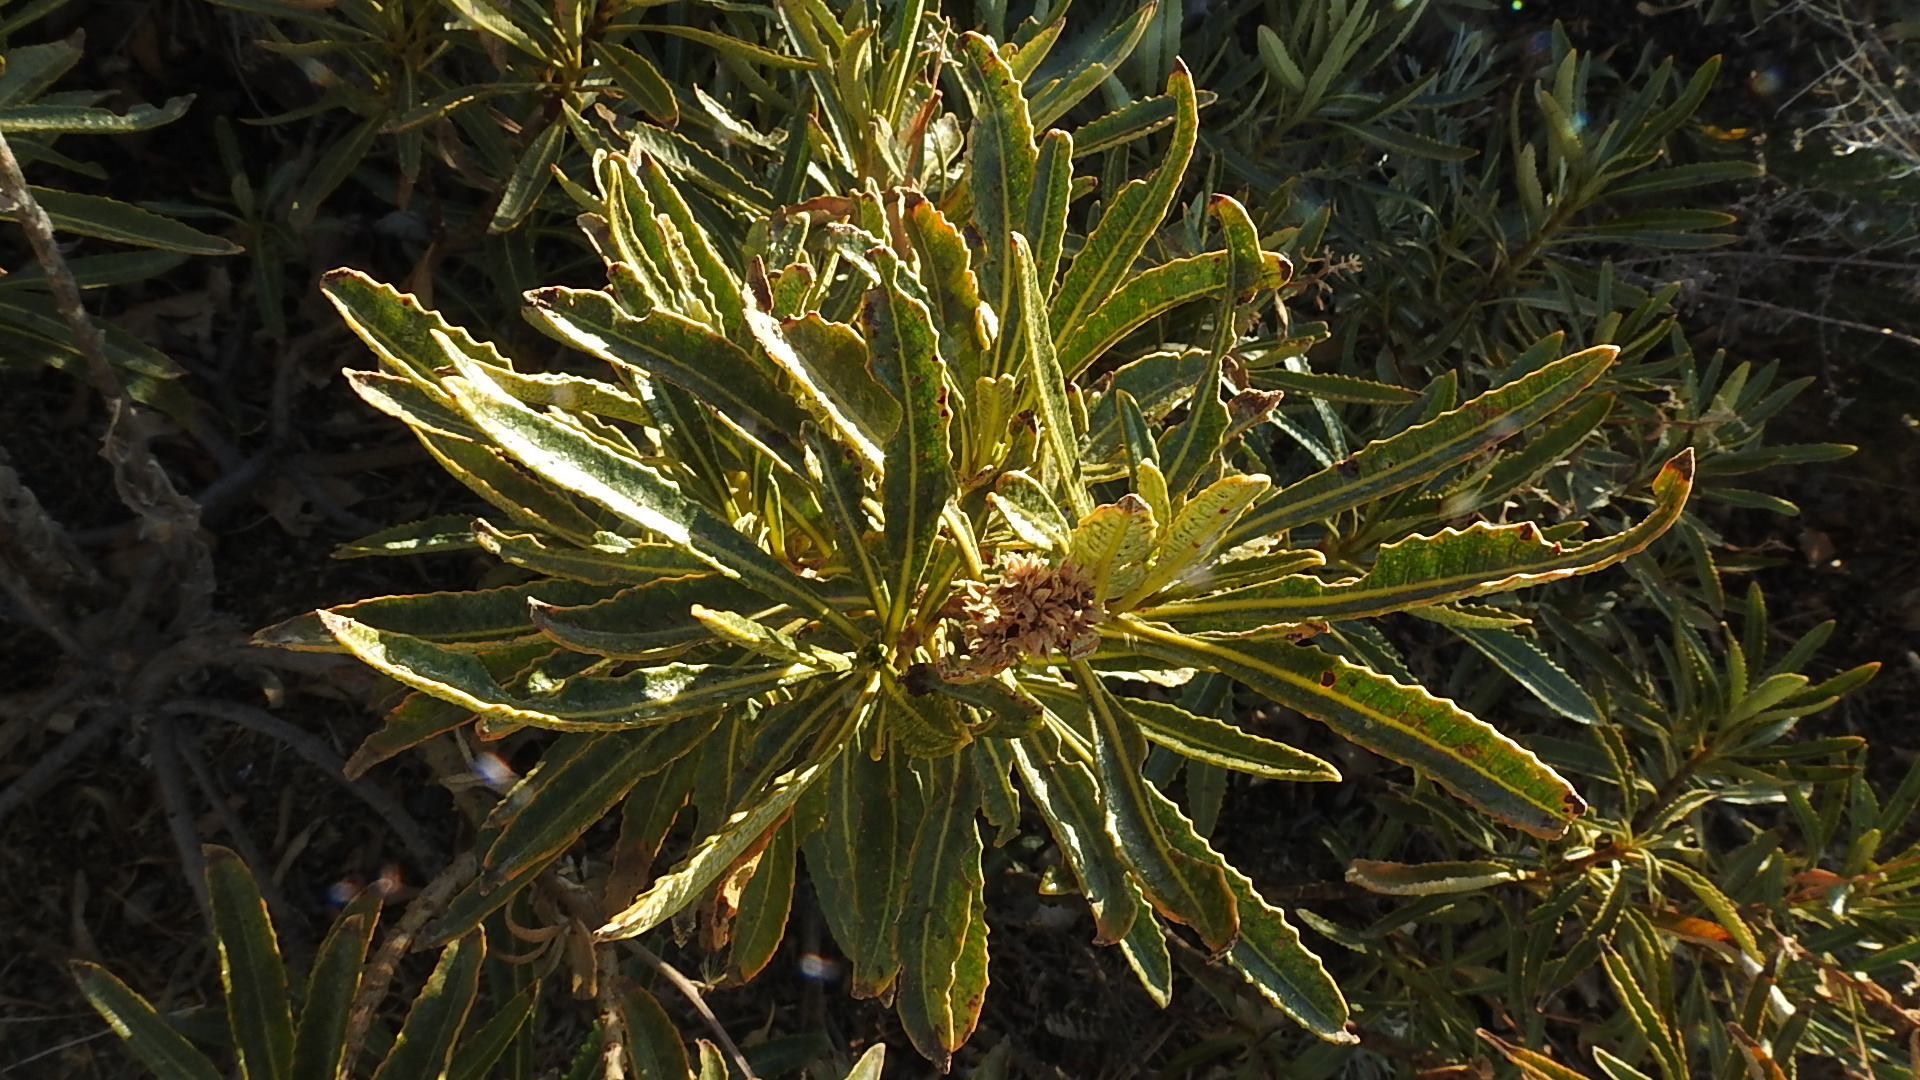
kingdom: Plantae
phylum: Tracheophyta
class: Magnoliopsida
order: Boraginales
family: Namaceae
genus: Eriodictyon
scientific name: Eriodictyon trichocalyx
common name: Hairy yerba-santa
